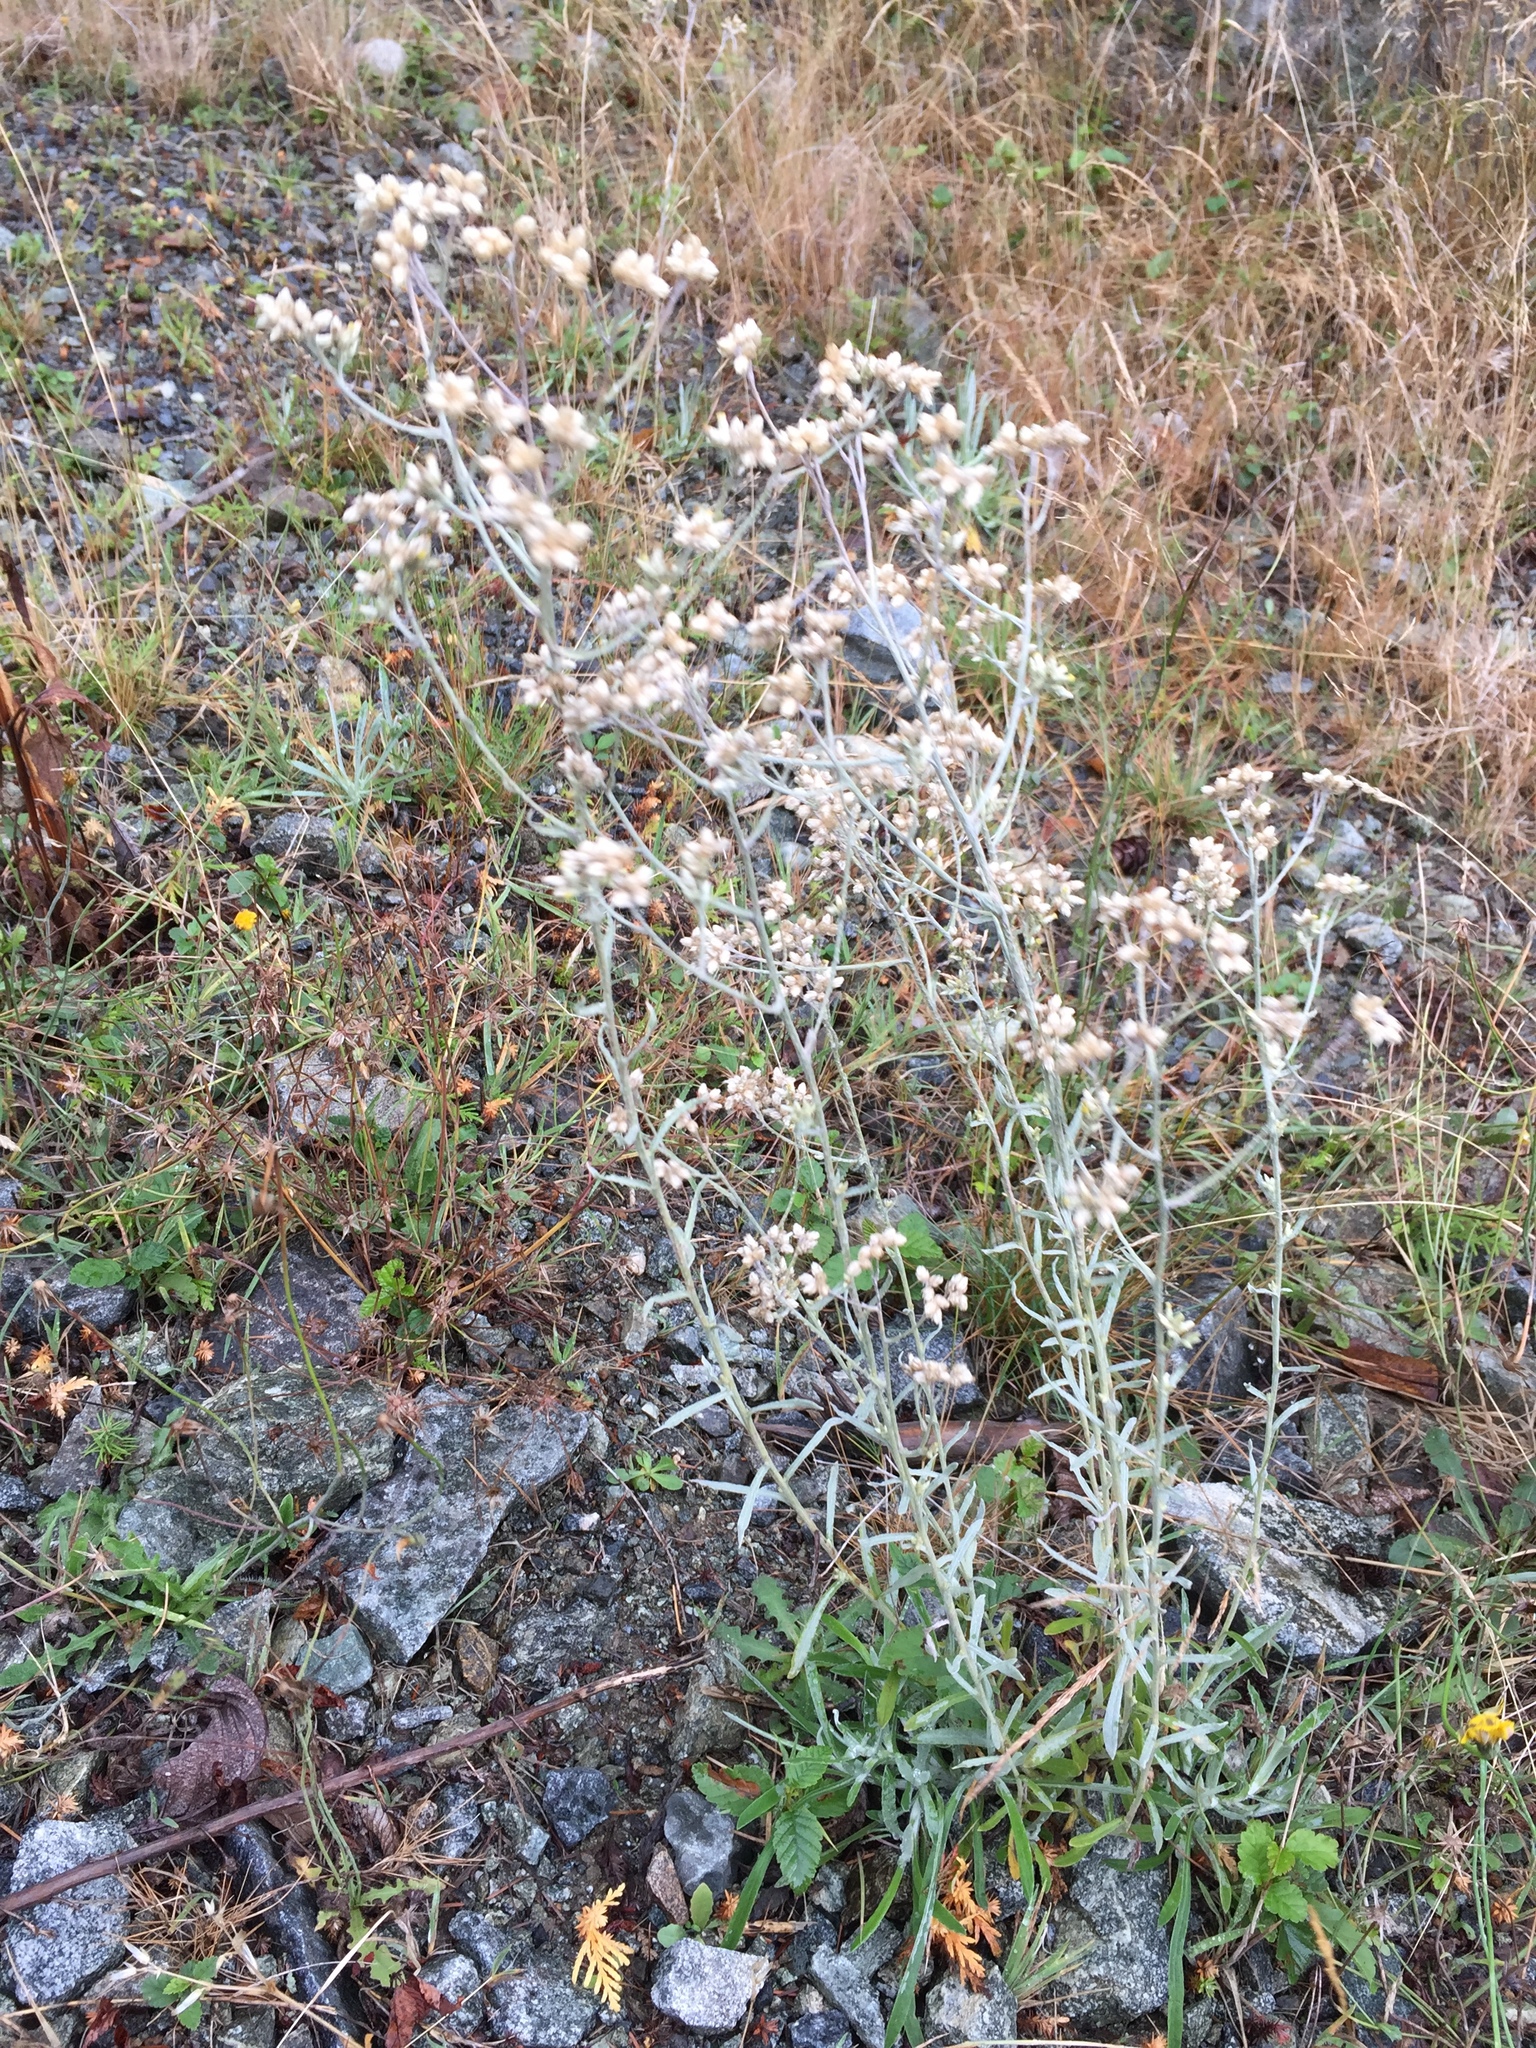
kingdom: Plantae
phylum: Tracheophyta
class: Magnoliopsida
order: Asterales
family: Asteraceae
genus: Pseudognaphalium
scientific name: Pseudognaphalium thermale
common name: Northwestern rabbit-tobacco
